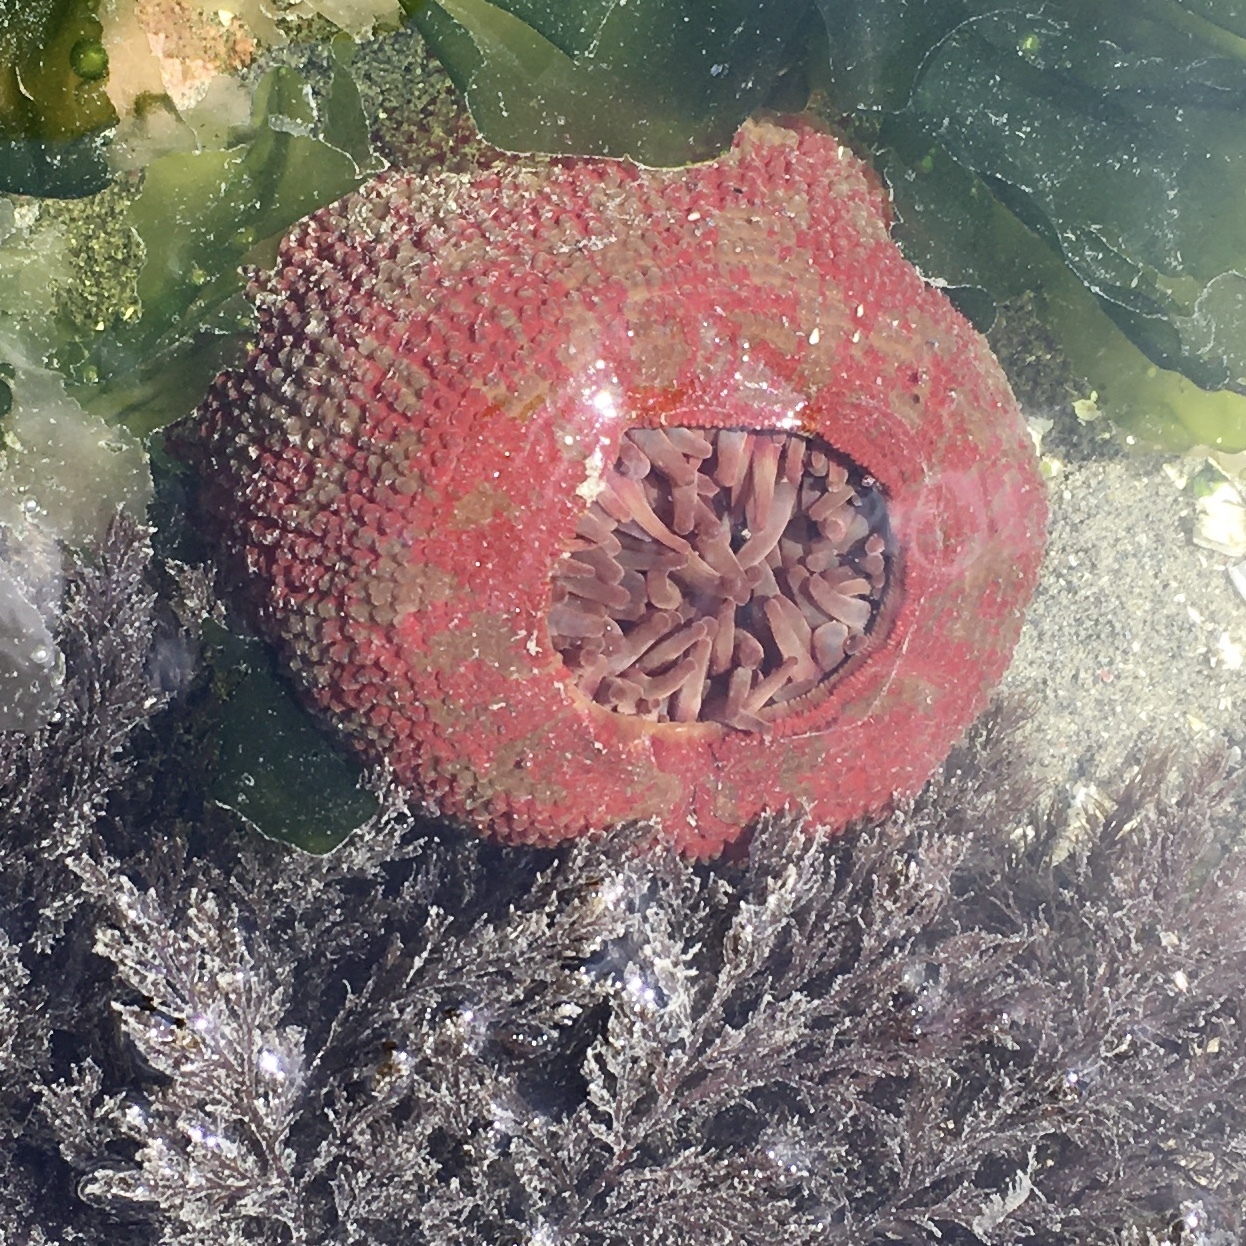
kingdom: Animalia
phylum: Cnidaria
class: Anthozoa
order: Actiniaria
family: Actiniidae
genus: Urticina
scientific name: Urticina grebelnyi
